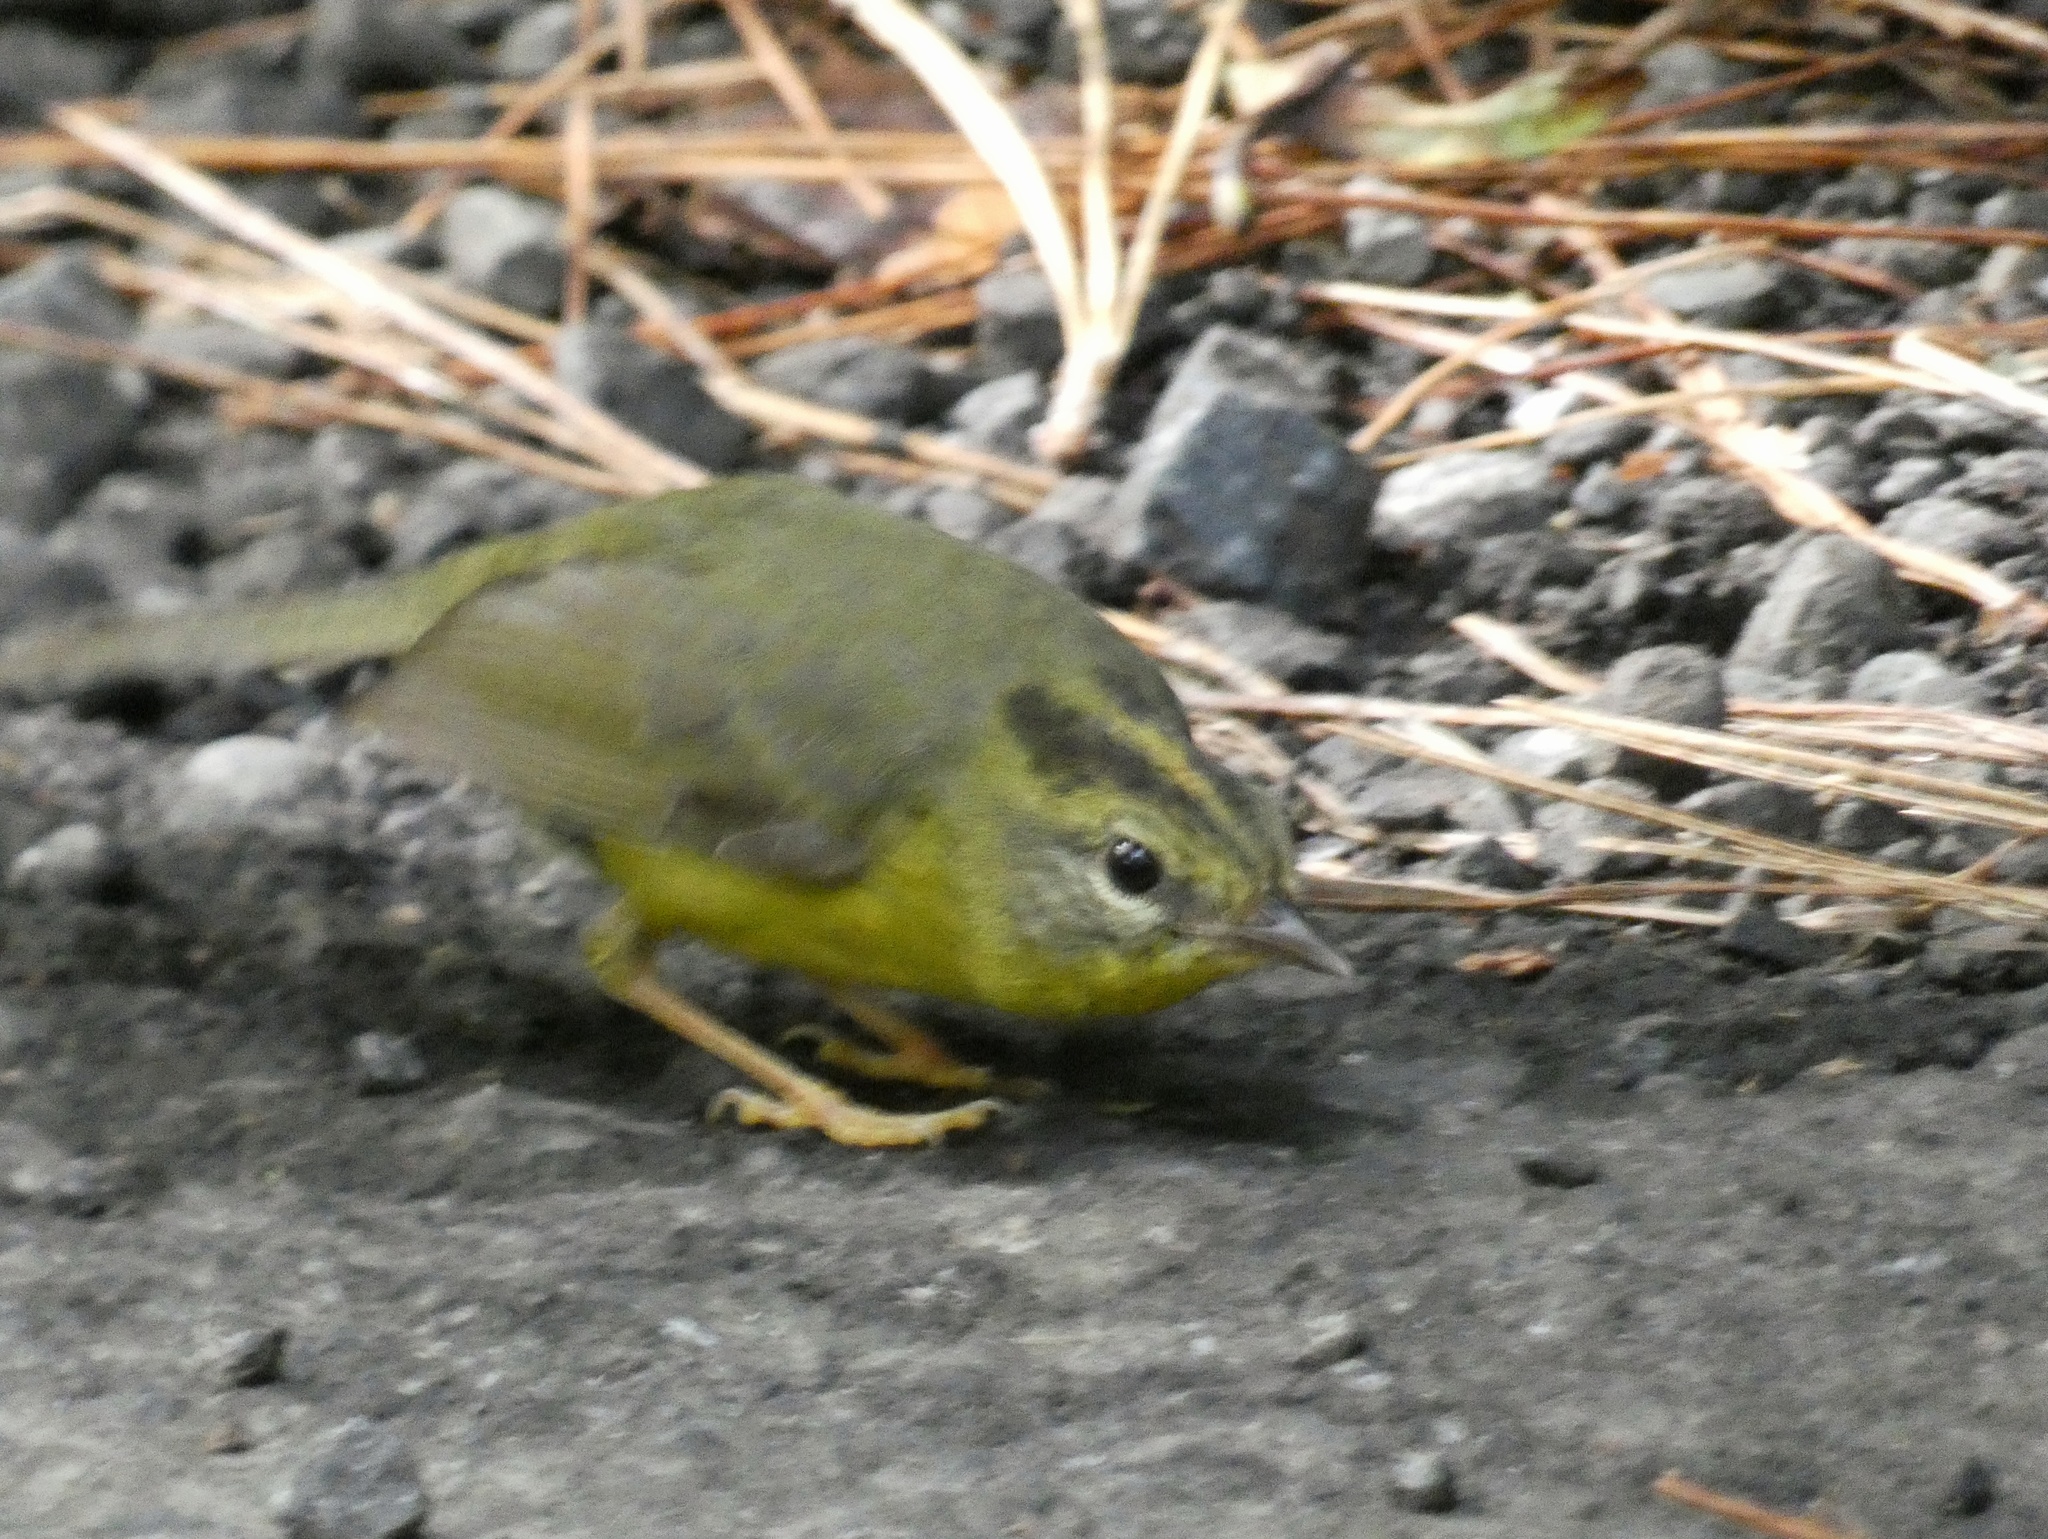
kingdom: Animalia
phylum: Chordata
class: Aves
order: Passeriformes
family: Parulidae
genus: Basileuterus
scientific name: Basileuterus culicivorus
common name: Golden-crowned warbler
